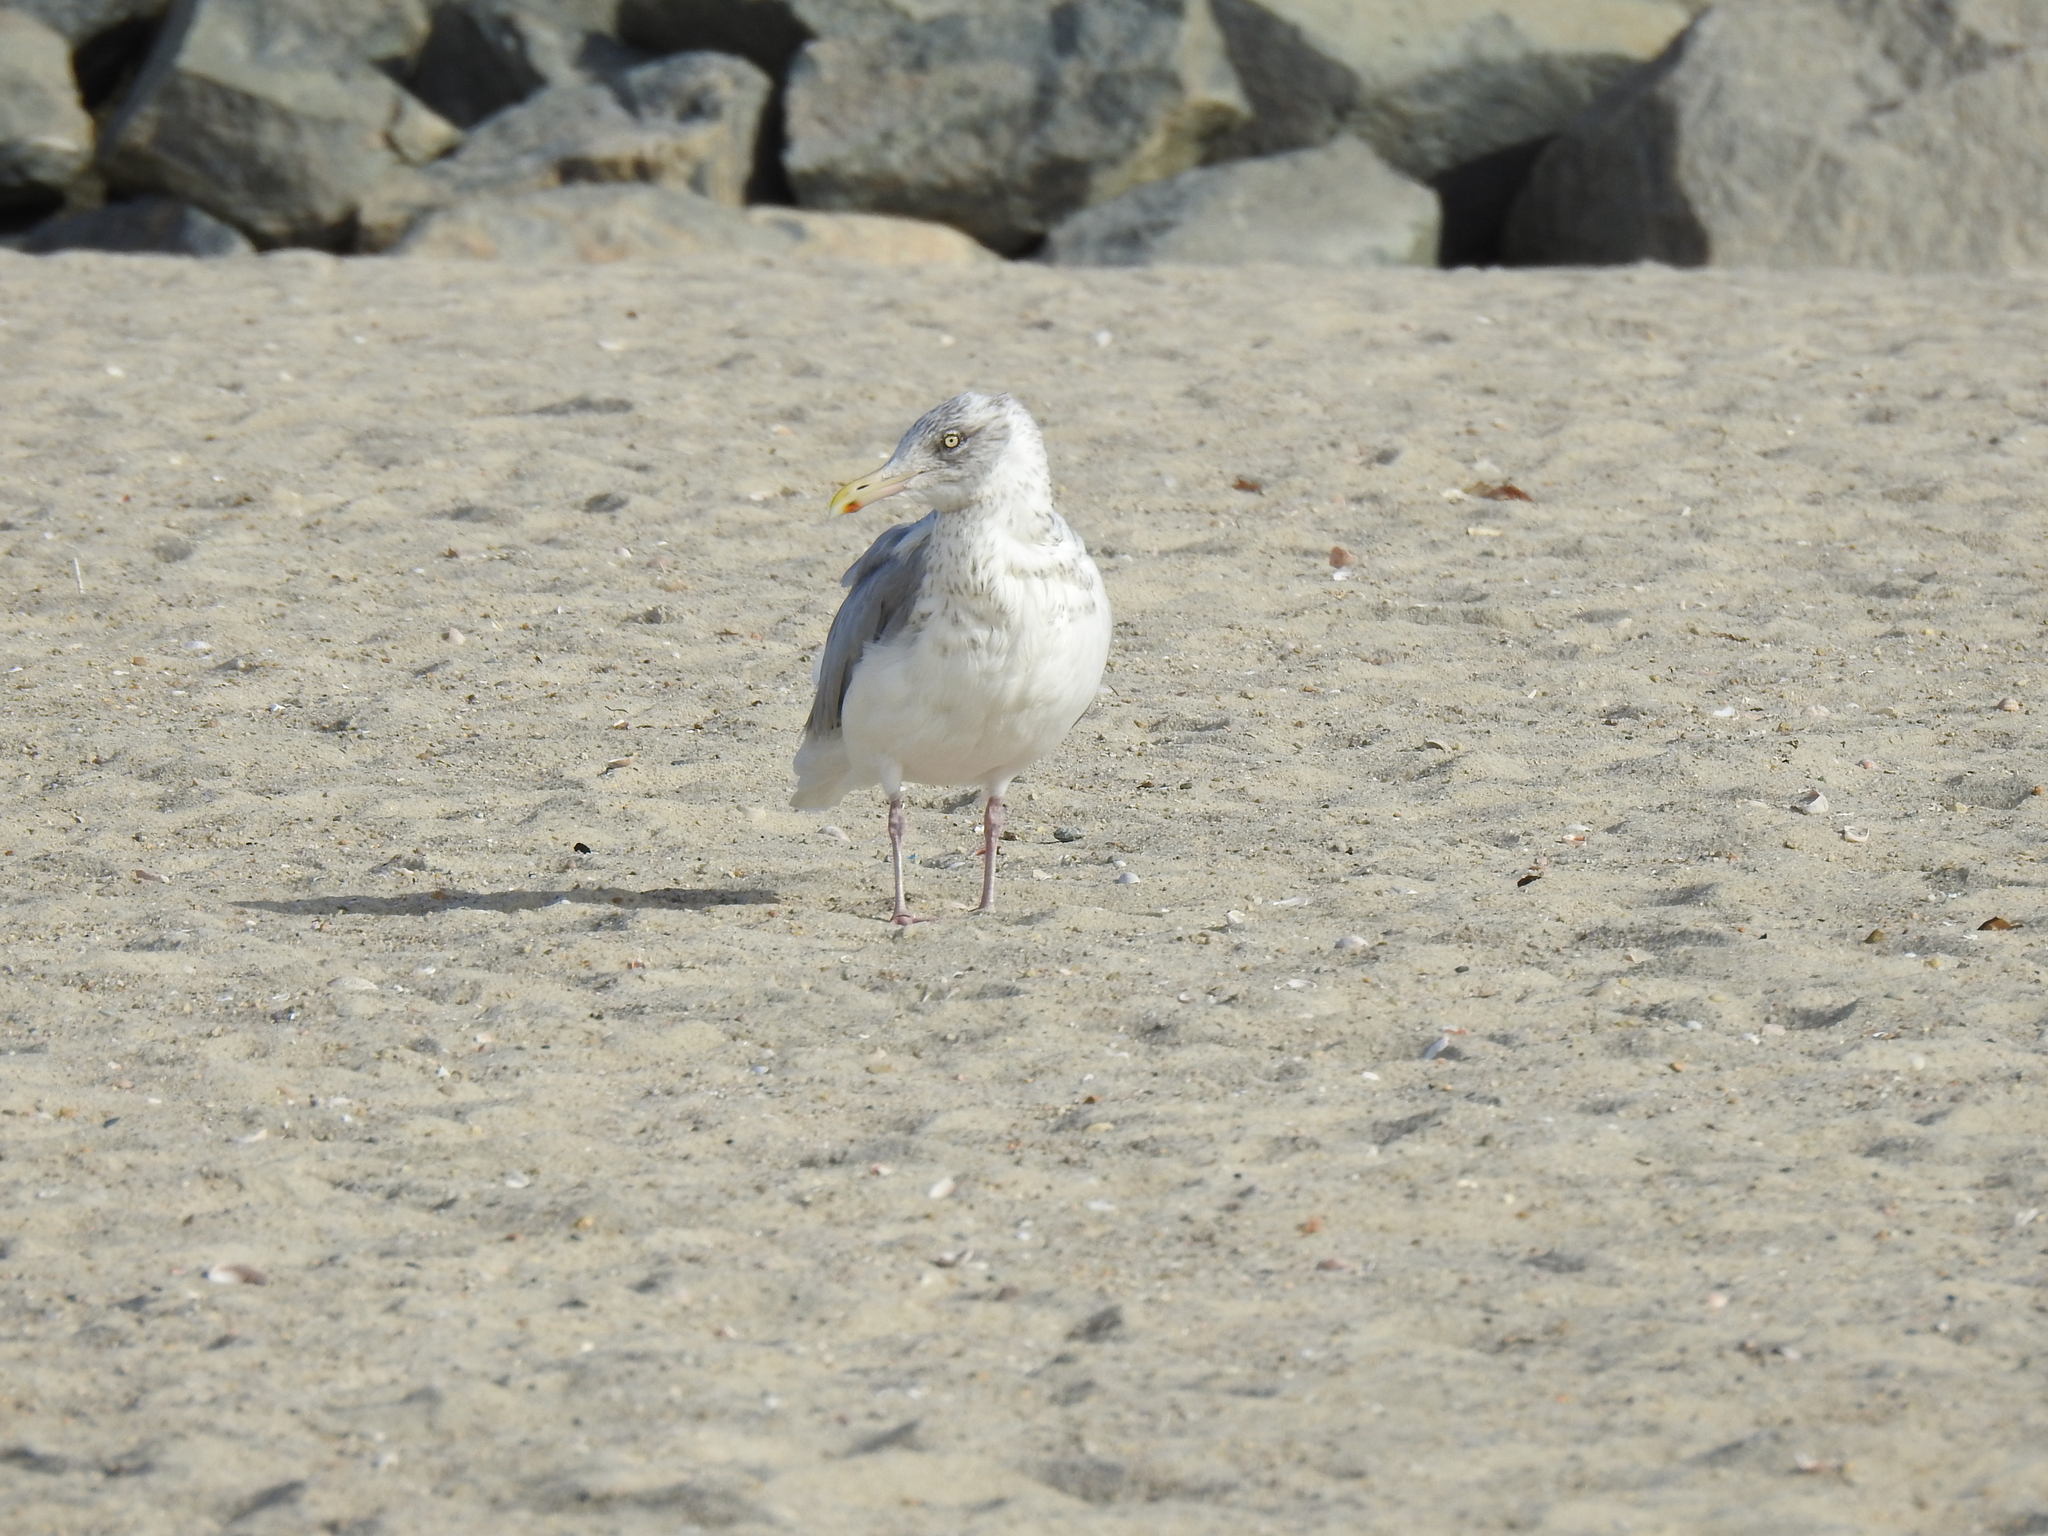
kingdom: Animalia
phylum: Chordata
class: Aves
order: Charadriiformes
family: Laridae
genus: Larus
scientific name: Larus argentatus
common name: Herring gull
